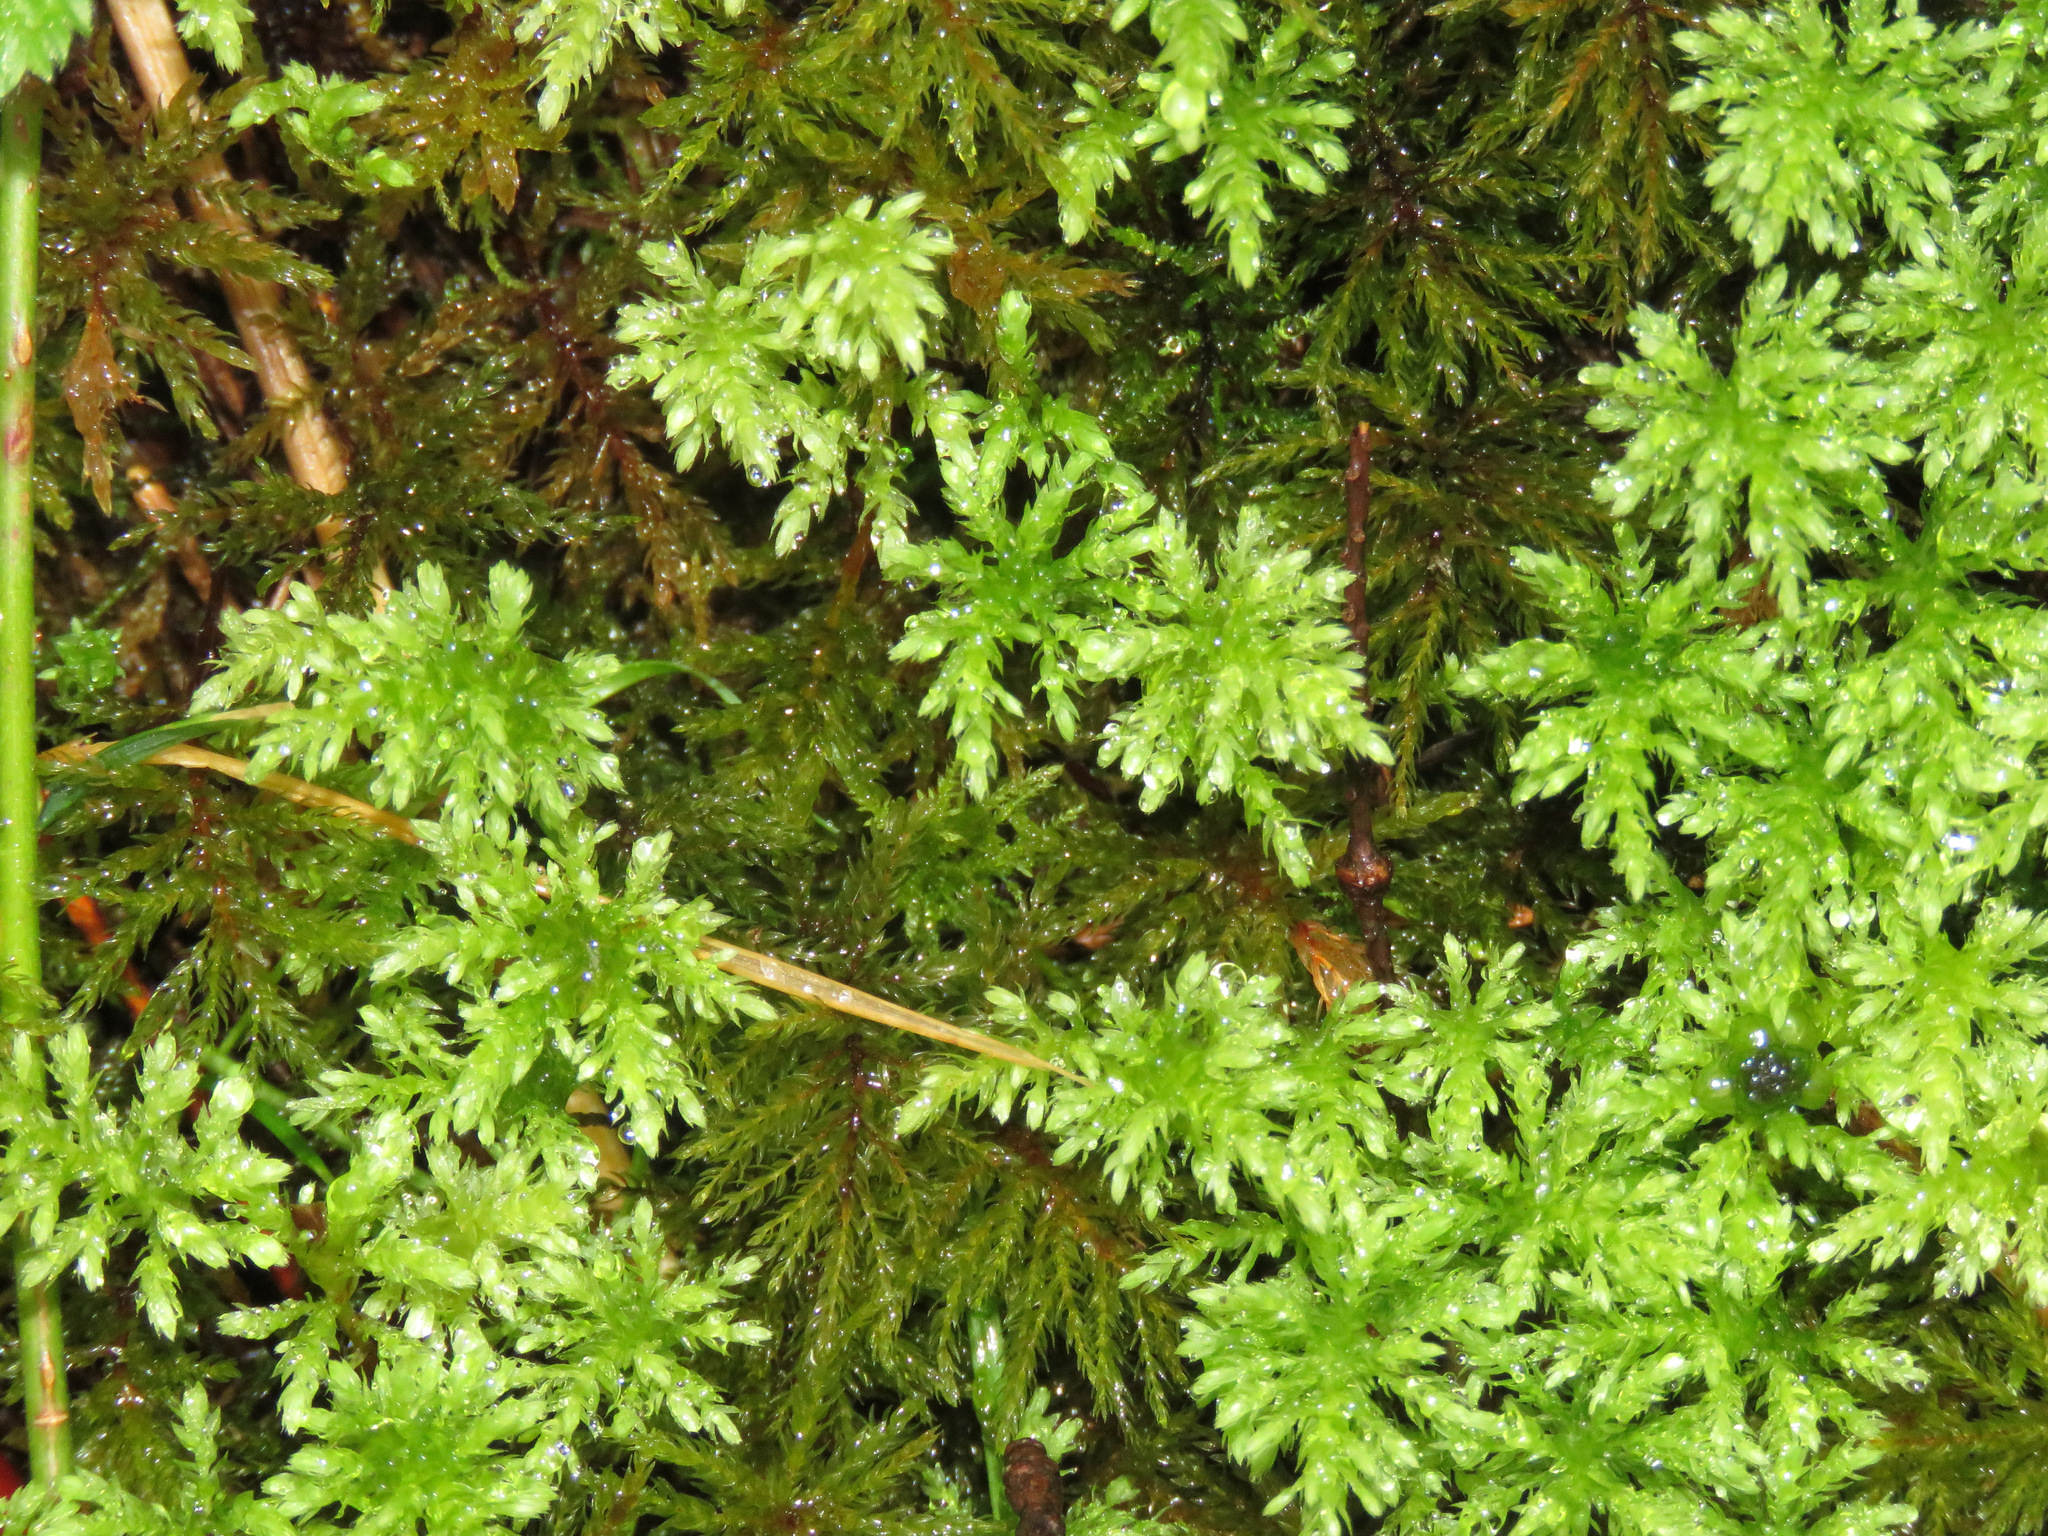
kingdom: Plantae
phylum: Bryophyta
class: Bryopsida
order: Bryales
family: Mniaceae
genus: Leucolepis
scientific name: Leucolepis acanthoneura
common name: Leucolepis umbrella moss
